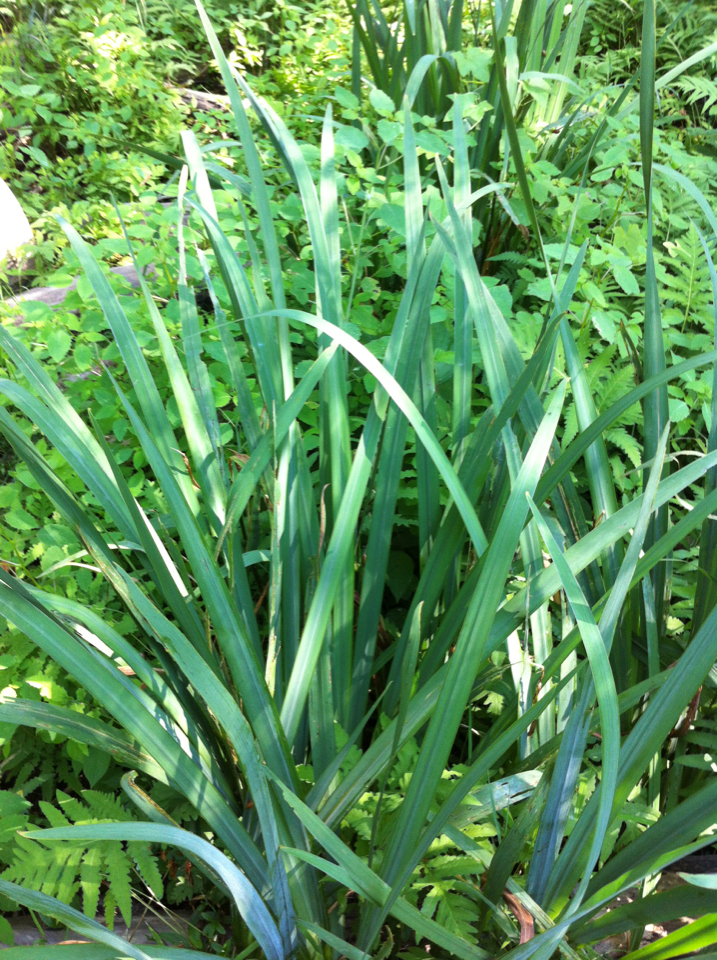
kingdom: Plantae
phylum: Tracheophyta
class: Liliopsida
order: Asparagales
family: Iridaceae
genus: Iris
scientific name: Iris pseudacorus
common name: Yellow flag
